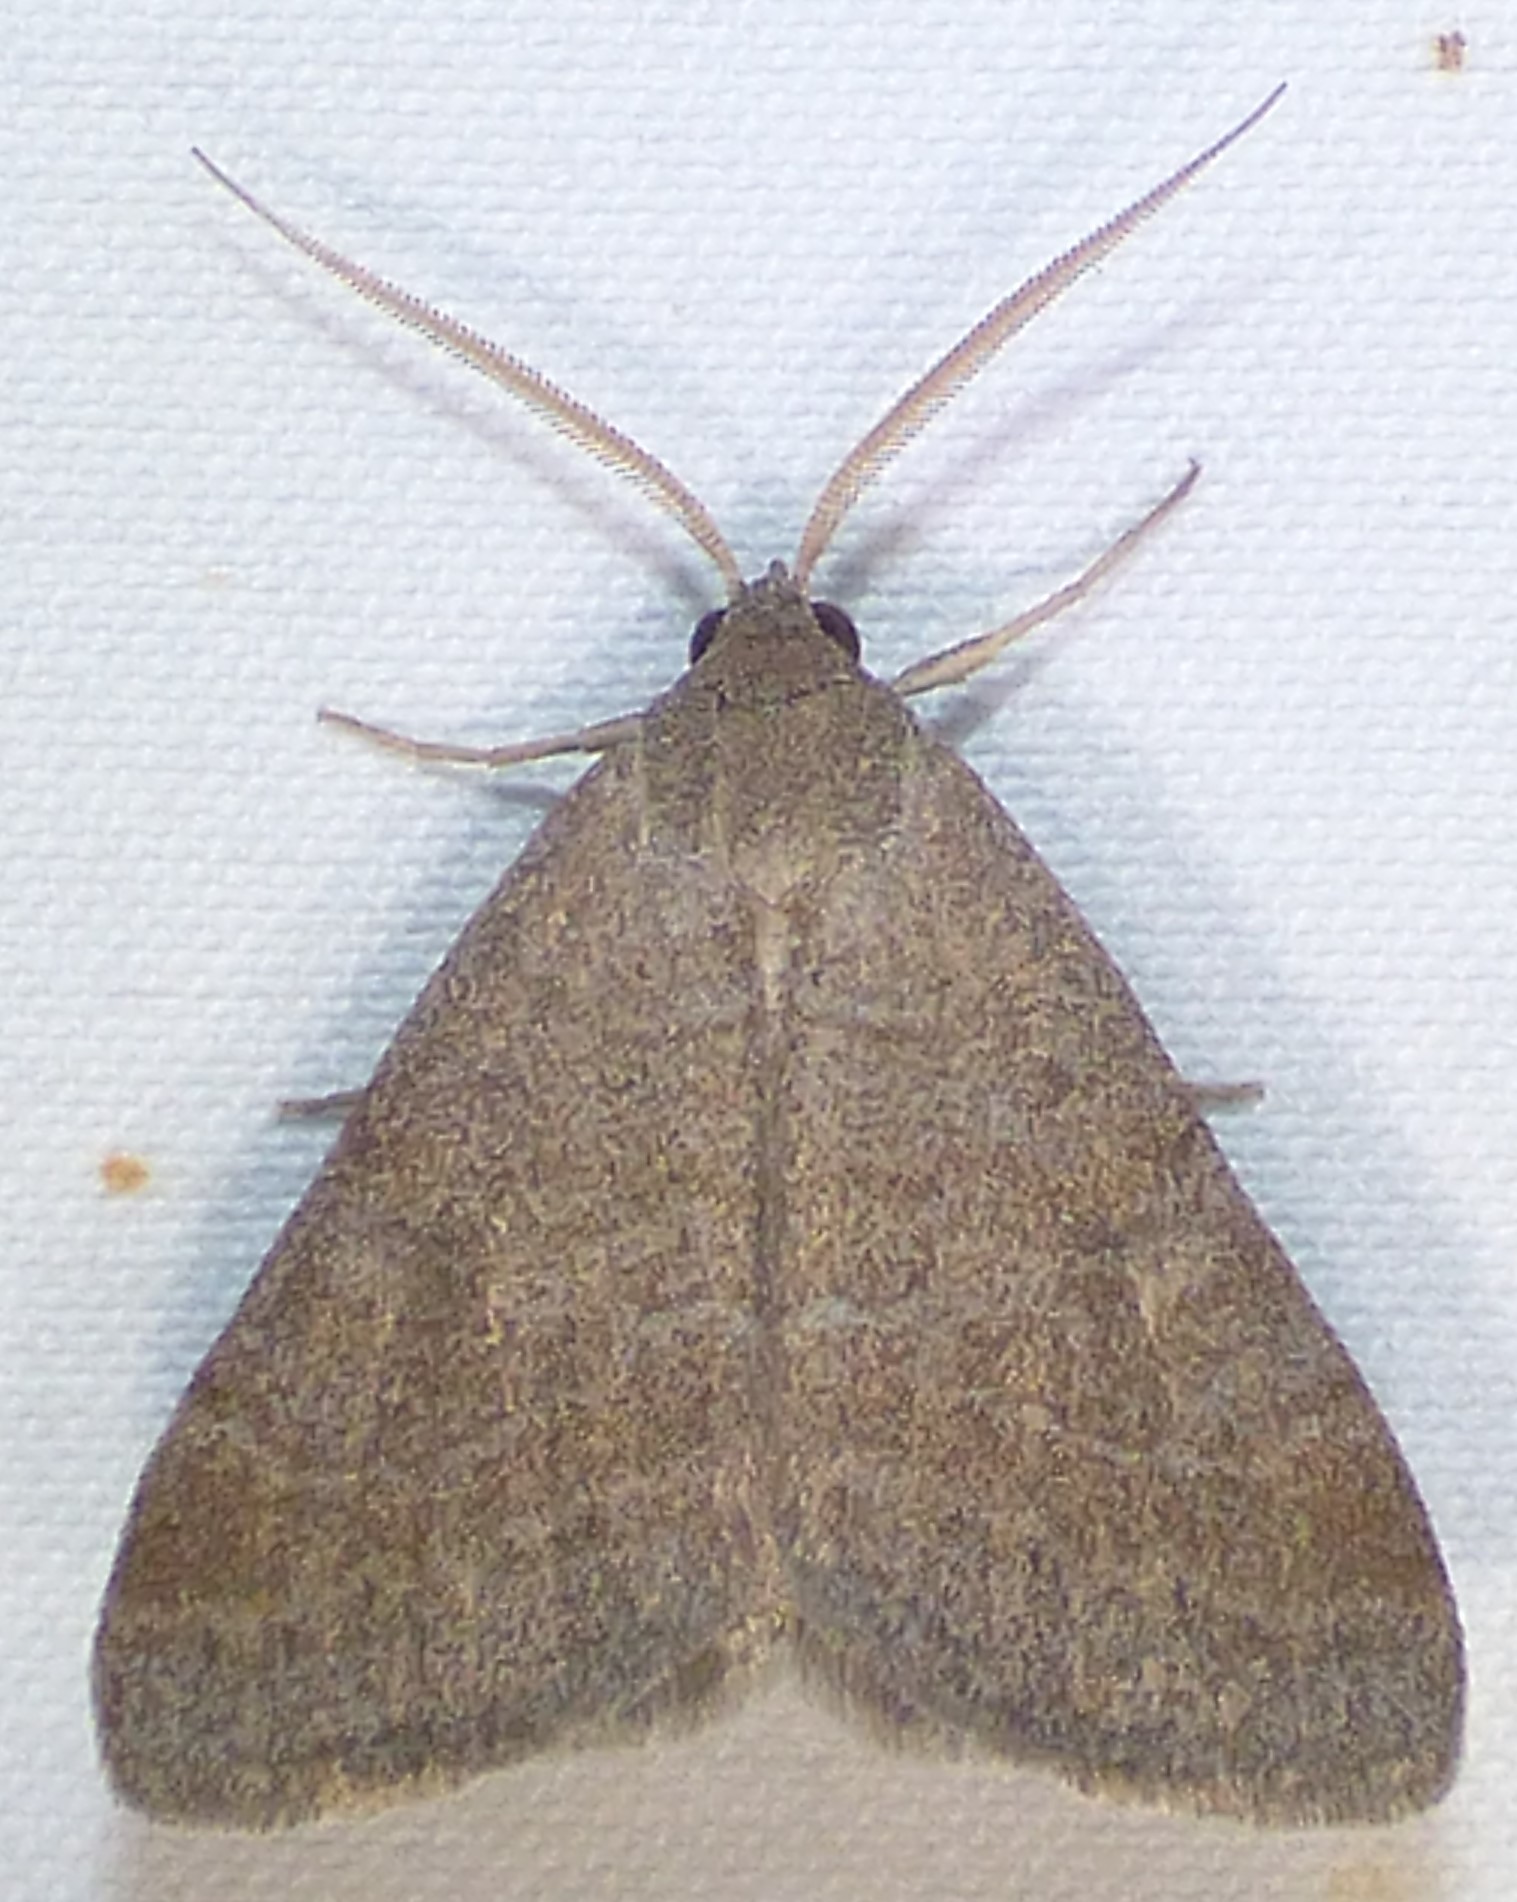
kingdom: Animalia
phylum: Arthropoda
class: Insecta
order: Lepidoptera
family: Erebidae
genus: Caenurgia
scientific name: Caenurgia chloropha
